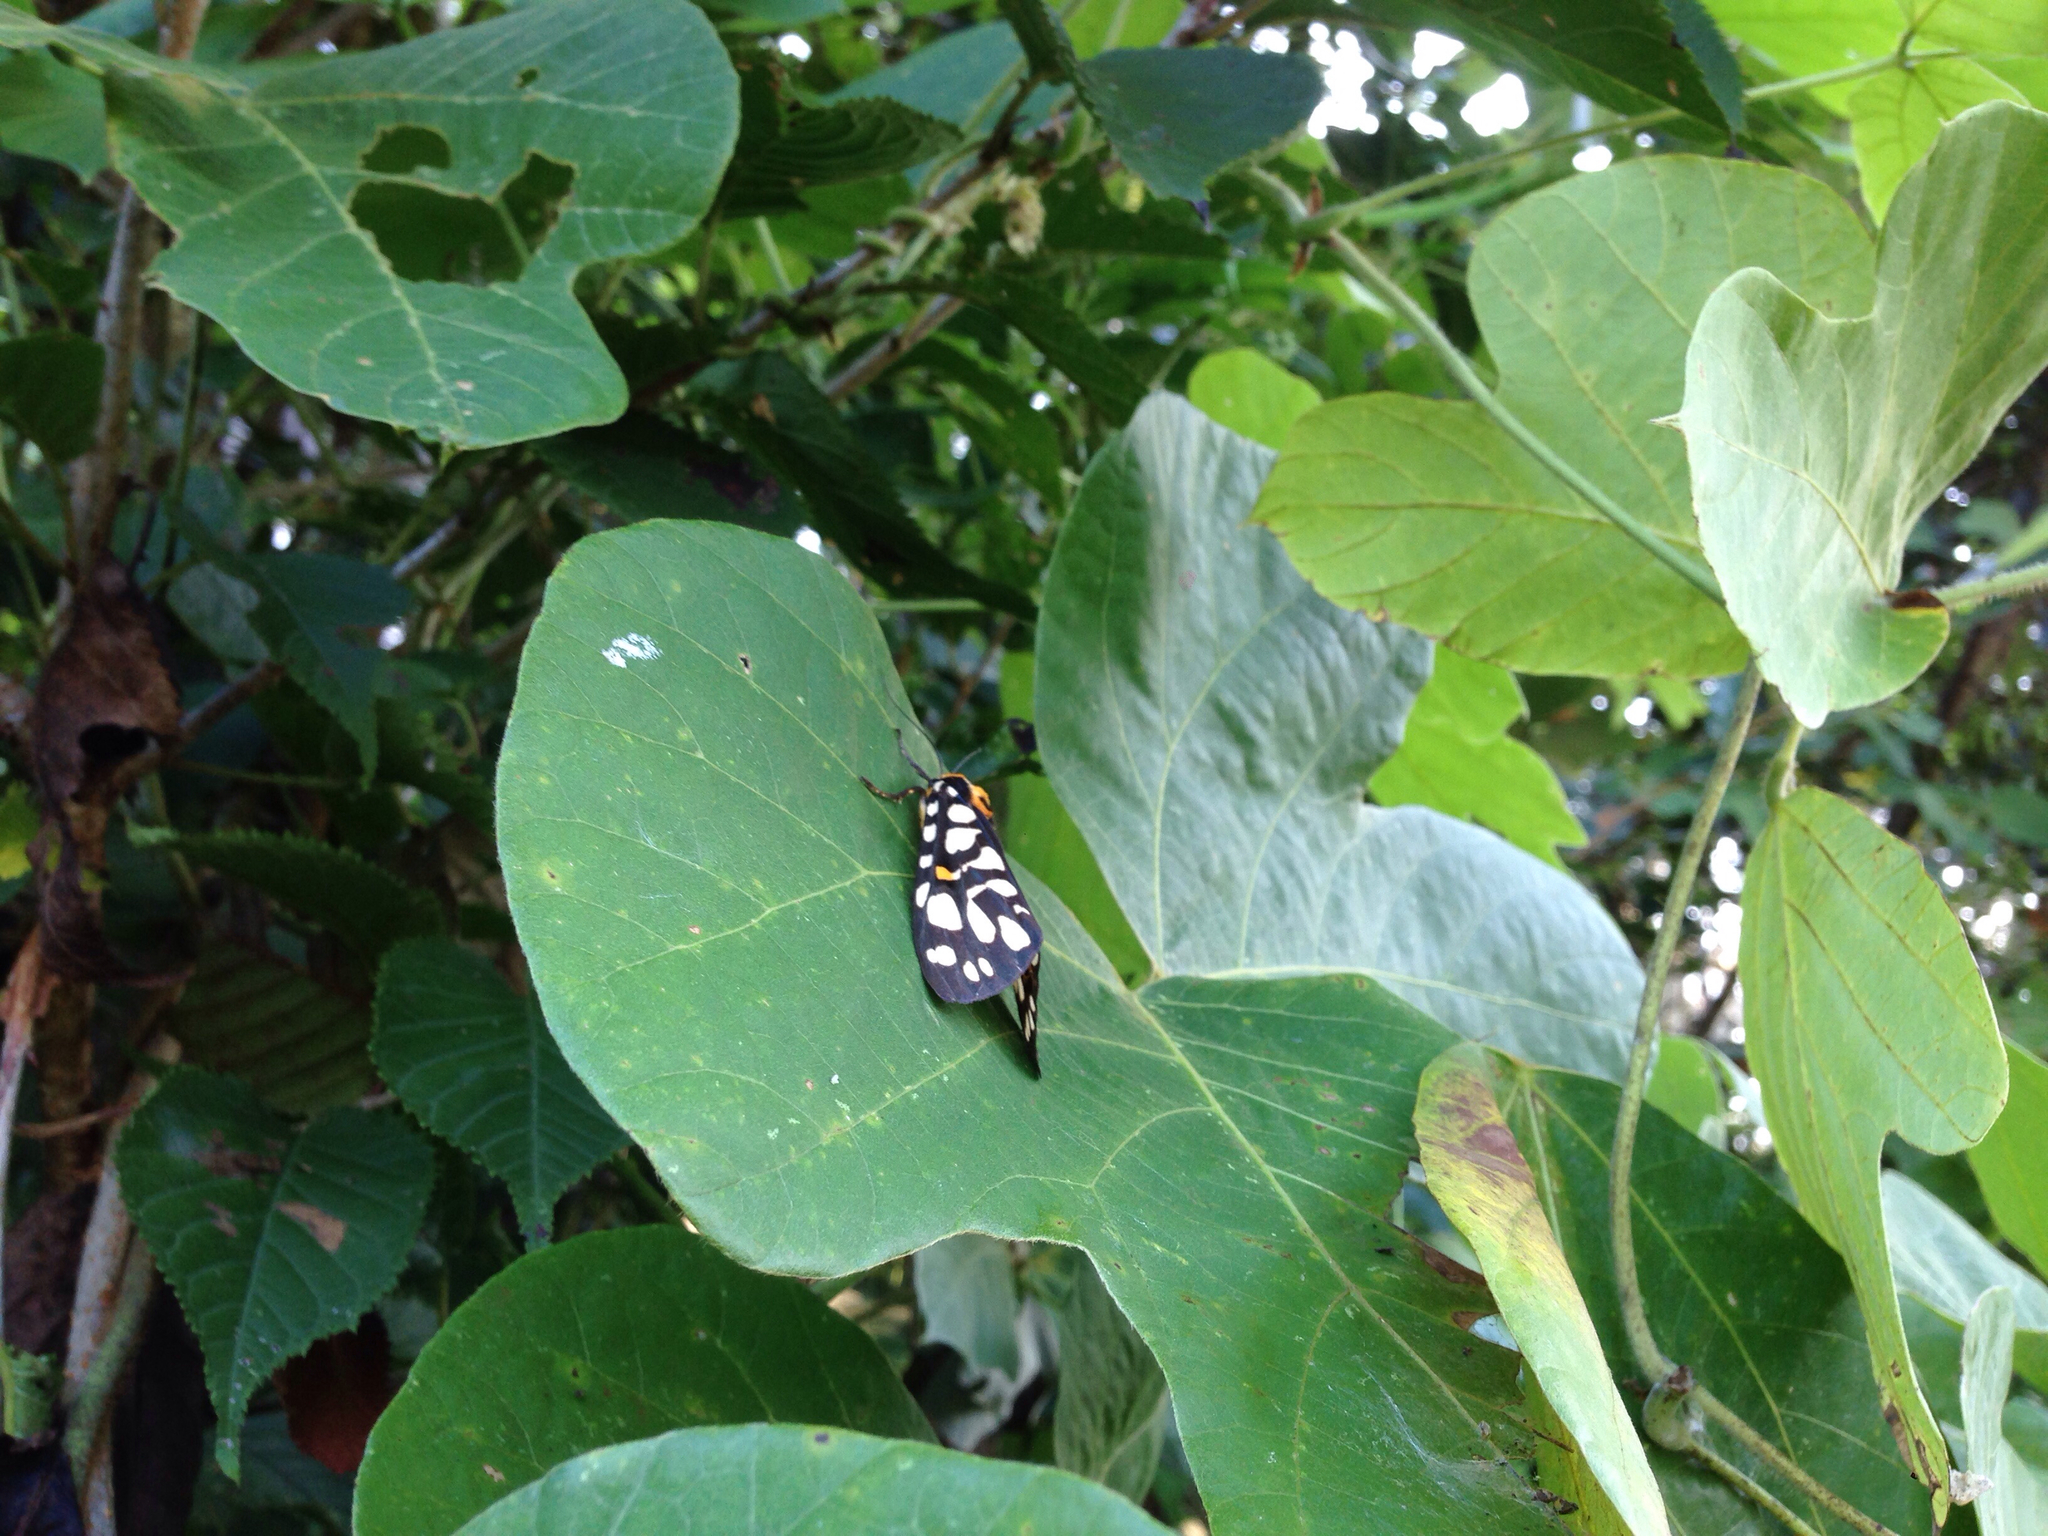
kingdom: Animalia
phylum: Arthropoda
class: Insecta
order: Lepidoptera
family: Erebidae
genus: Aglaomorpha
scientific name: Aglaomorpha histrio
